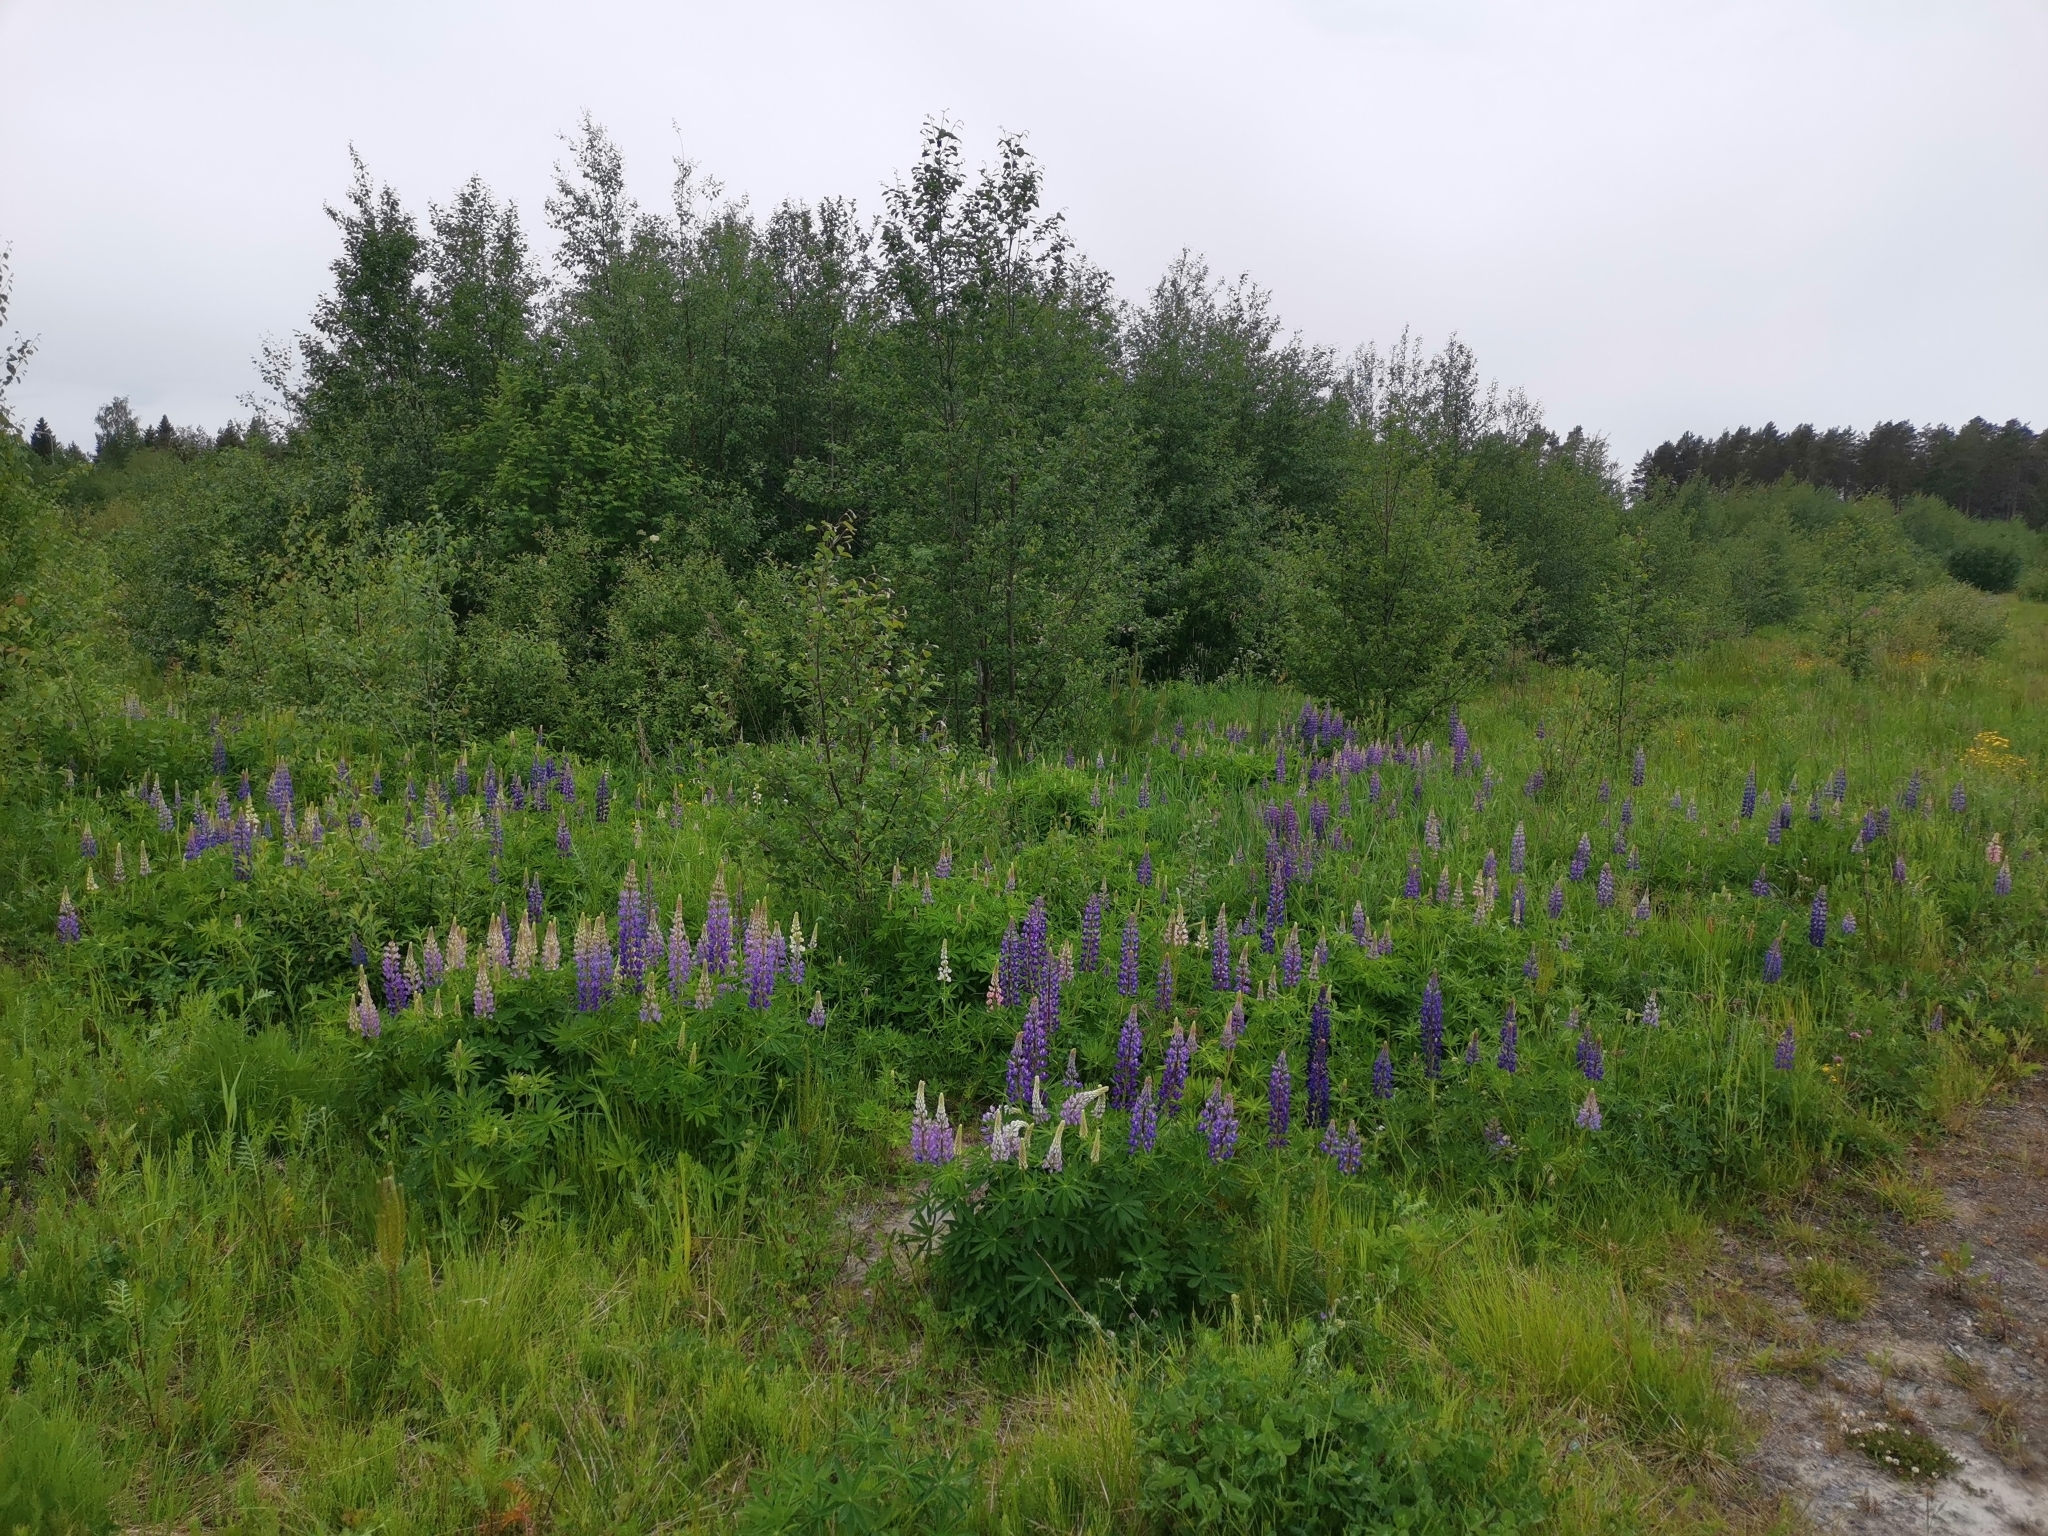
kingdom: Plantae
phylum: Tracheophyta
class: Magnoliopsida
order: Fabales
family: Fabaceae
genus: Lupinus
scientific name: Lupinus polyphyllus
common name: Garden lupin
